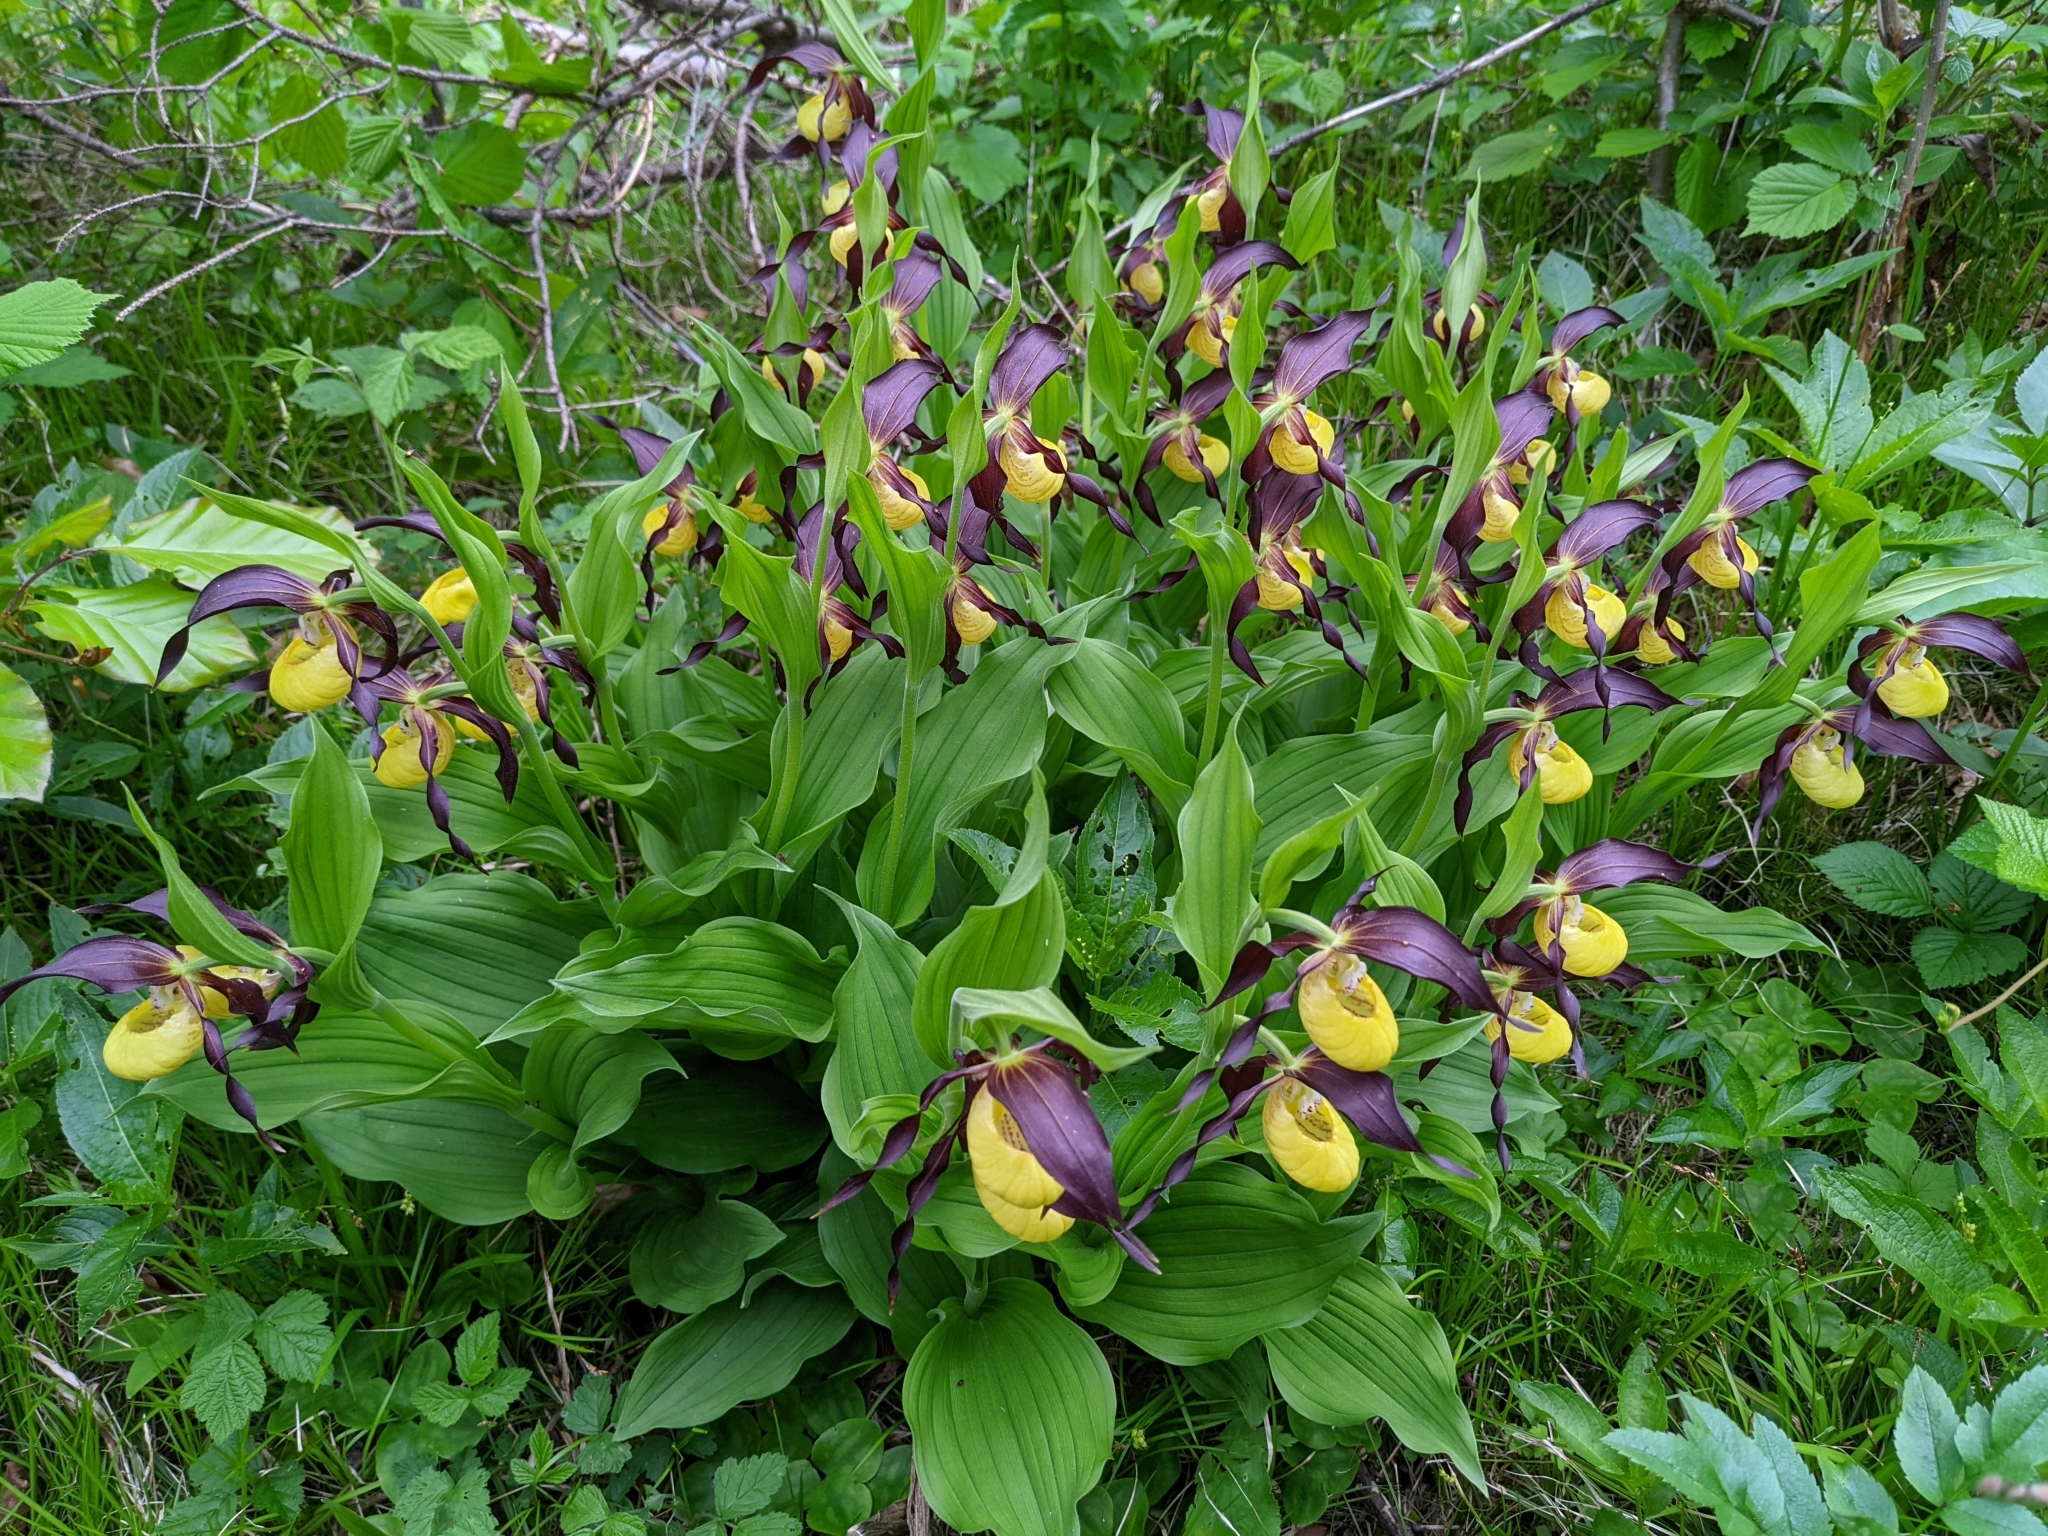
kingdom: Plantae
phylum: Tracheophyta
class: Liliopsida
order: Asparagales
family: Orchidaceae
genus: Cypripedium
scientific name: Cypripedium calceolus
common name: Lady's-slipper
